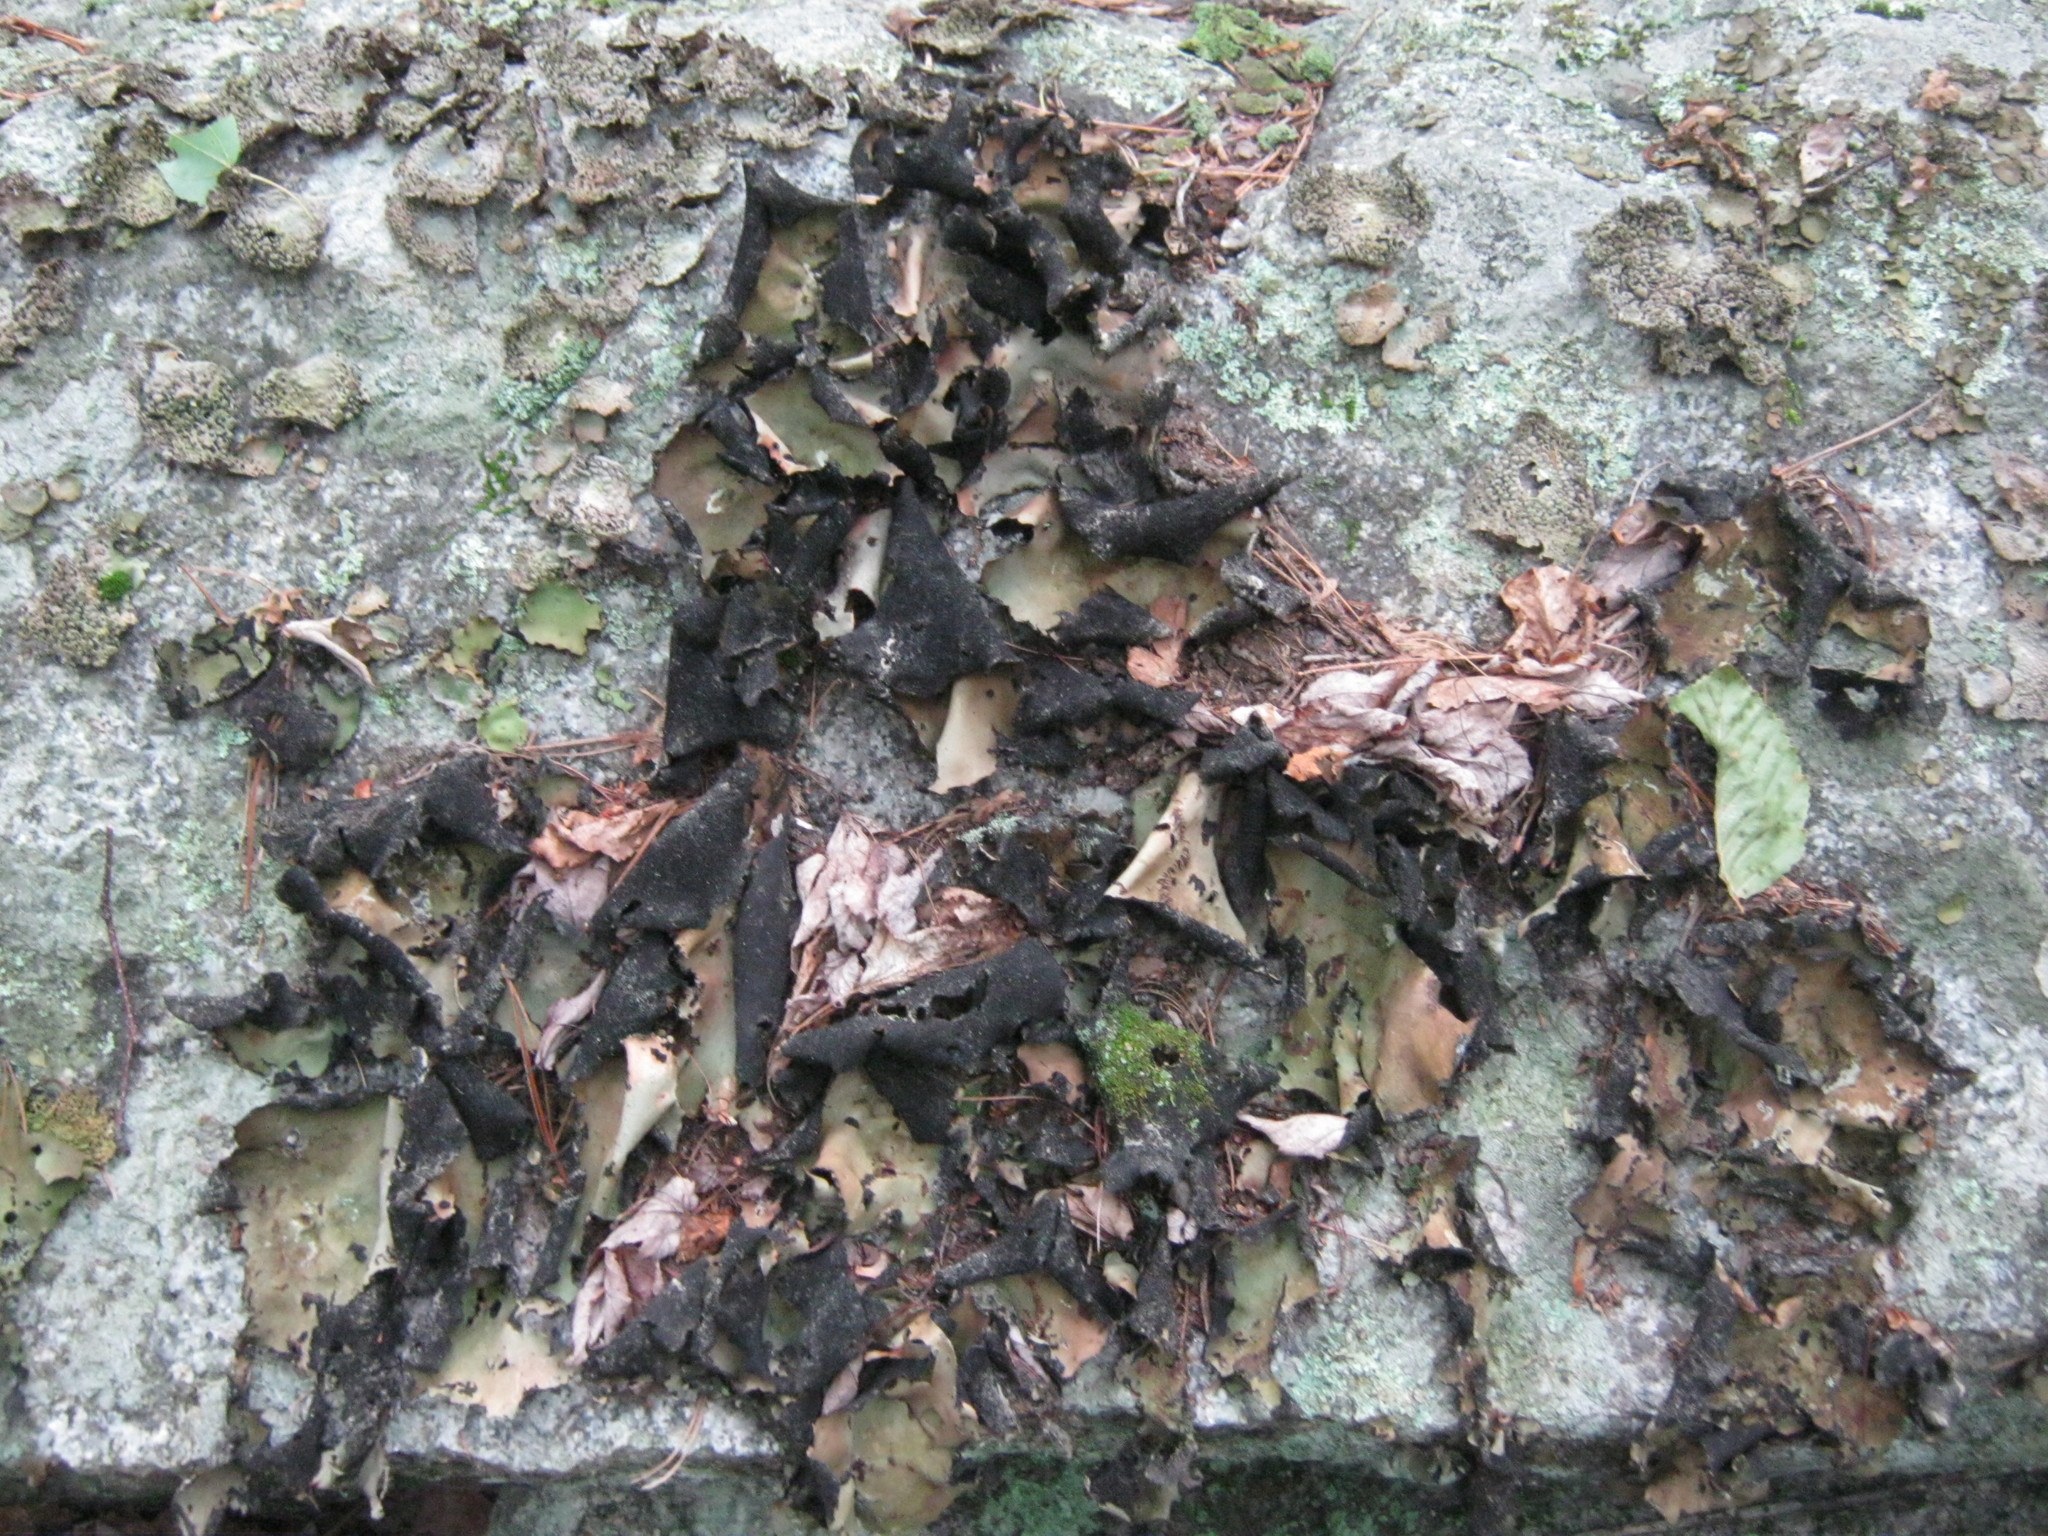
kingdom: Fungi
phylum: Ascomycota
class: Lecanoromycetes
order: Umbilicariales
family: Umbilicariaceae
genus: Umbilicaria
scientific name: Umbilicaria mammulata
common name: Smooth rock tripe
